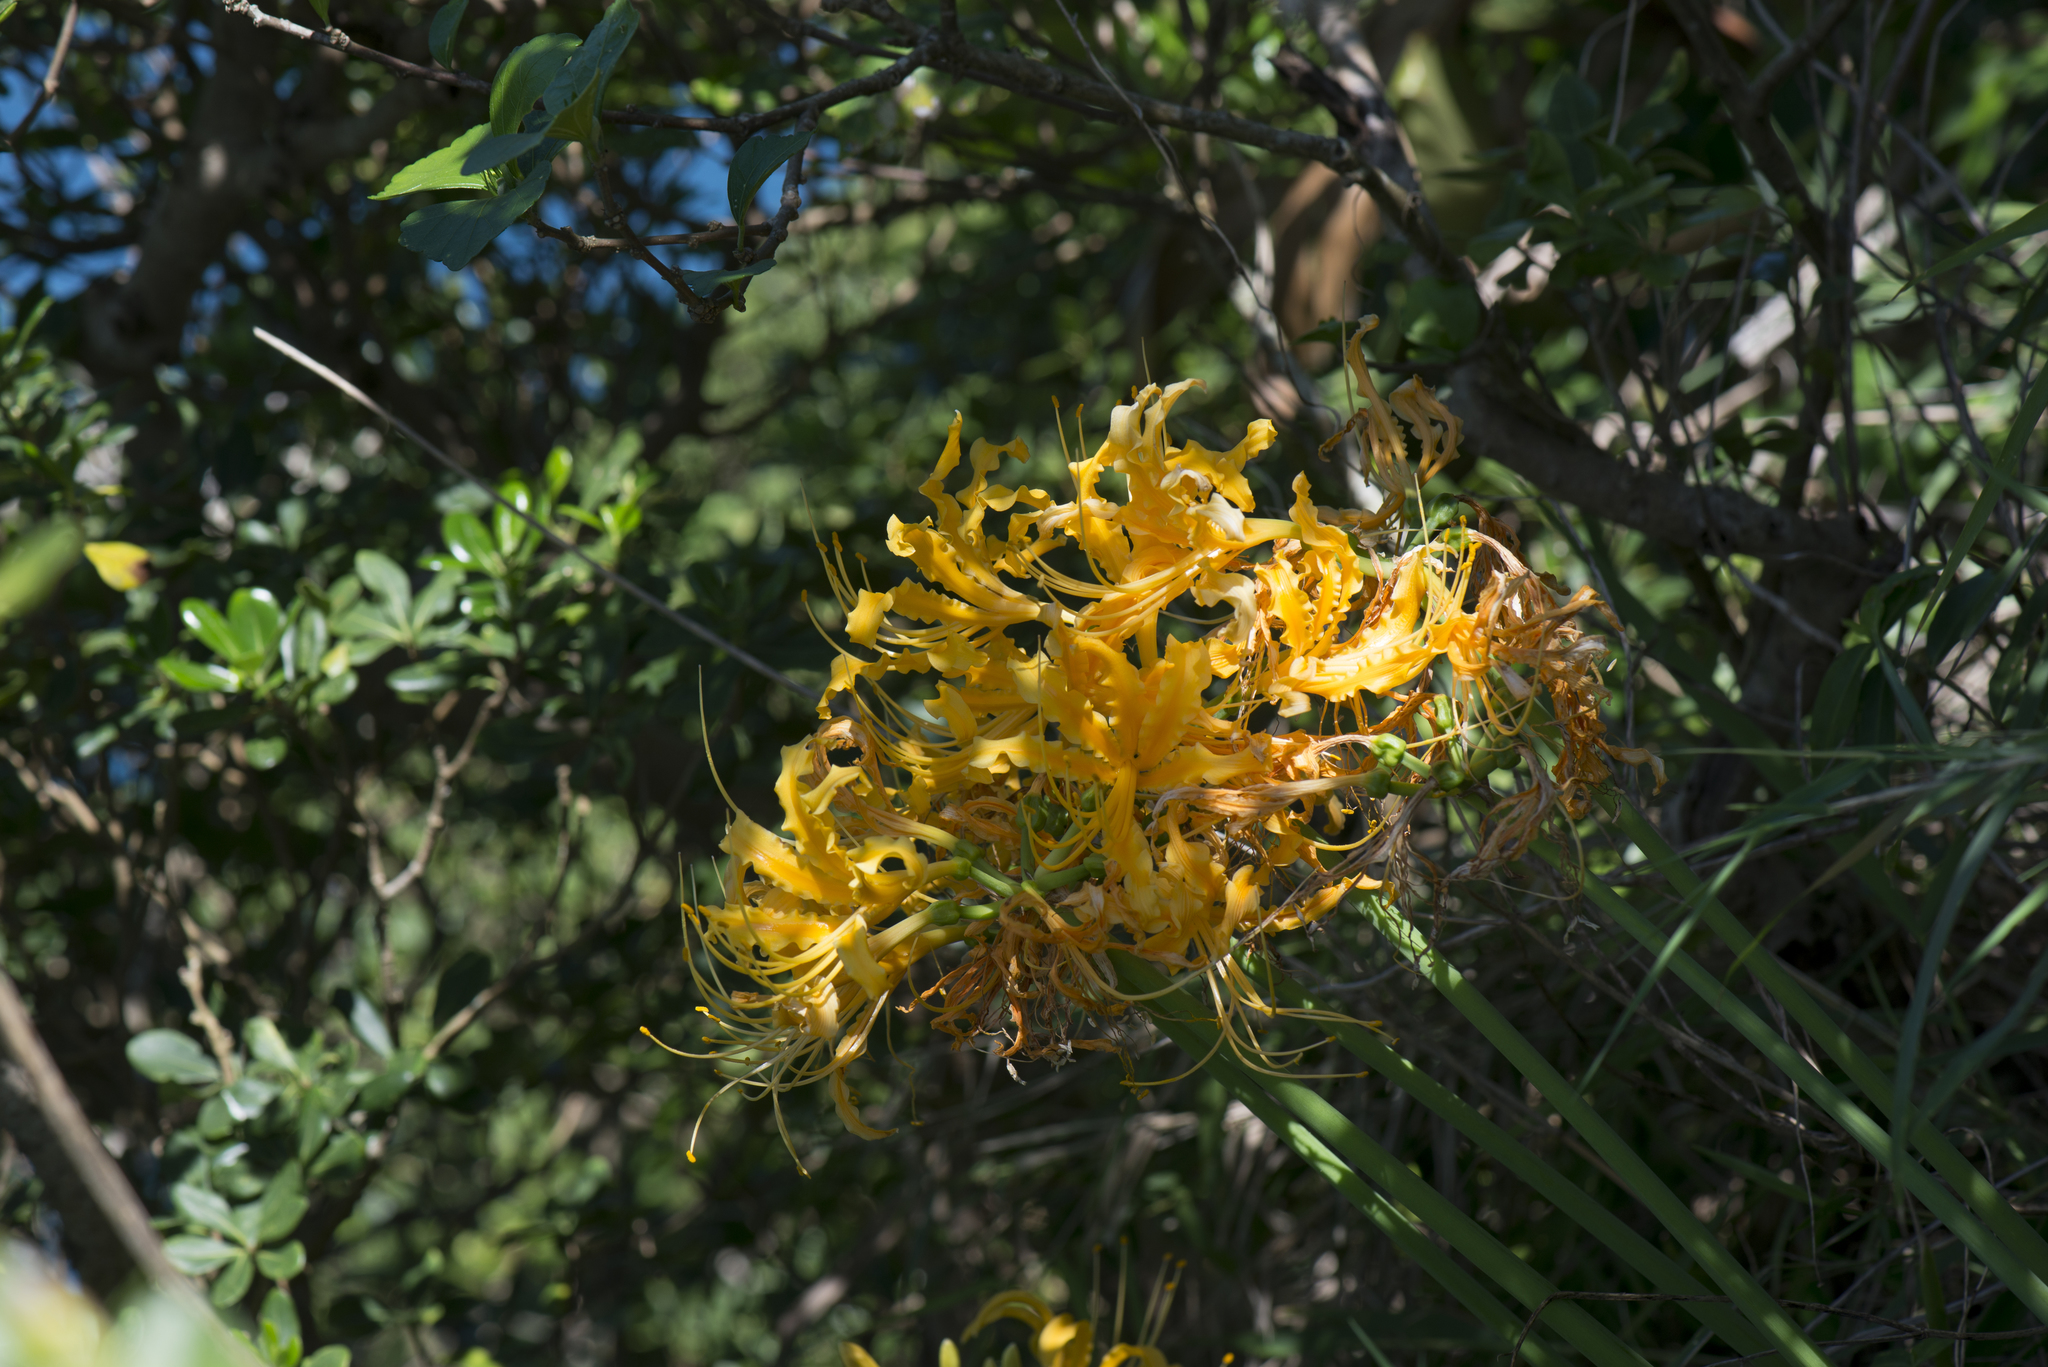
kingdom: Plantae
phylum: Tracheophyta
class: Liliopsida
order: Asparagales
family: Amaryllidaceae
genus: Lycoris
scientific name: Lycoris aurea
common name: Golden hurricane-lily
